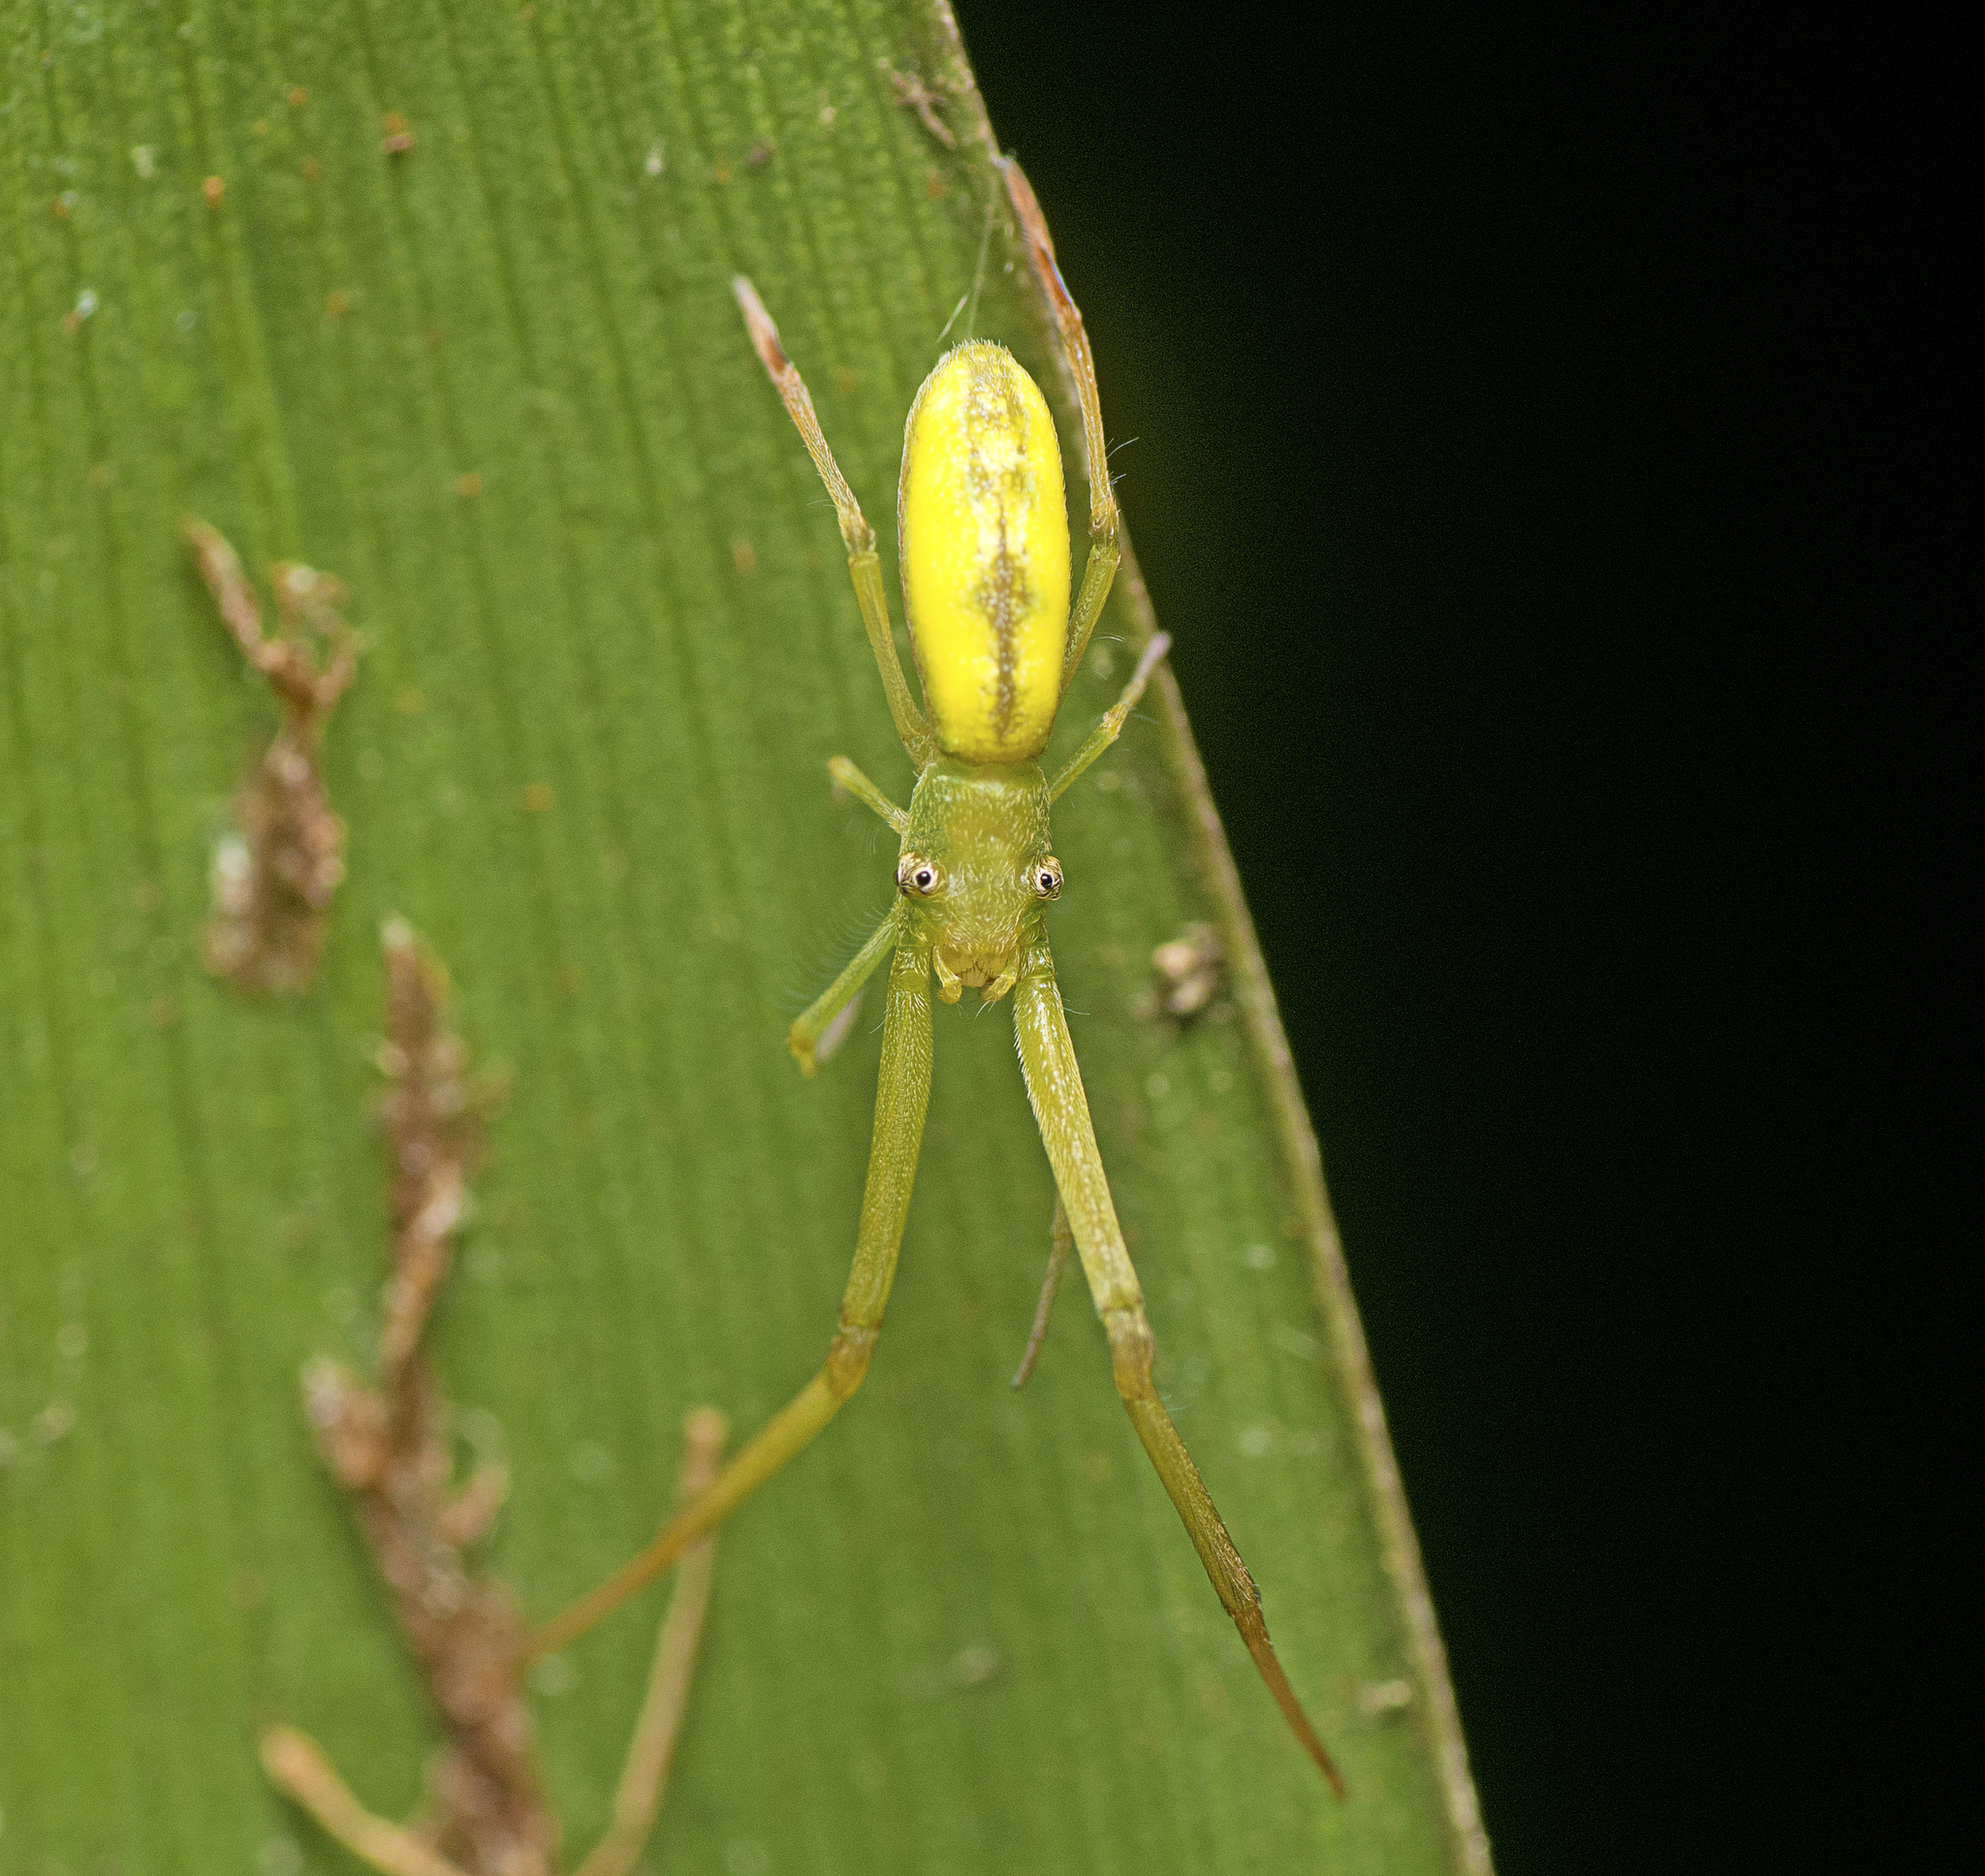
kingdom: Animalia
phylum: Arthropoda
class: Arachnida
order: Araneae
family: Uloboridae
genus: Miagrammopes
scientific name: Miagrammopes flavus
